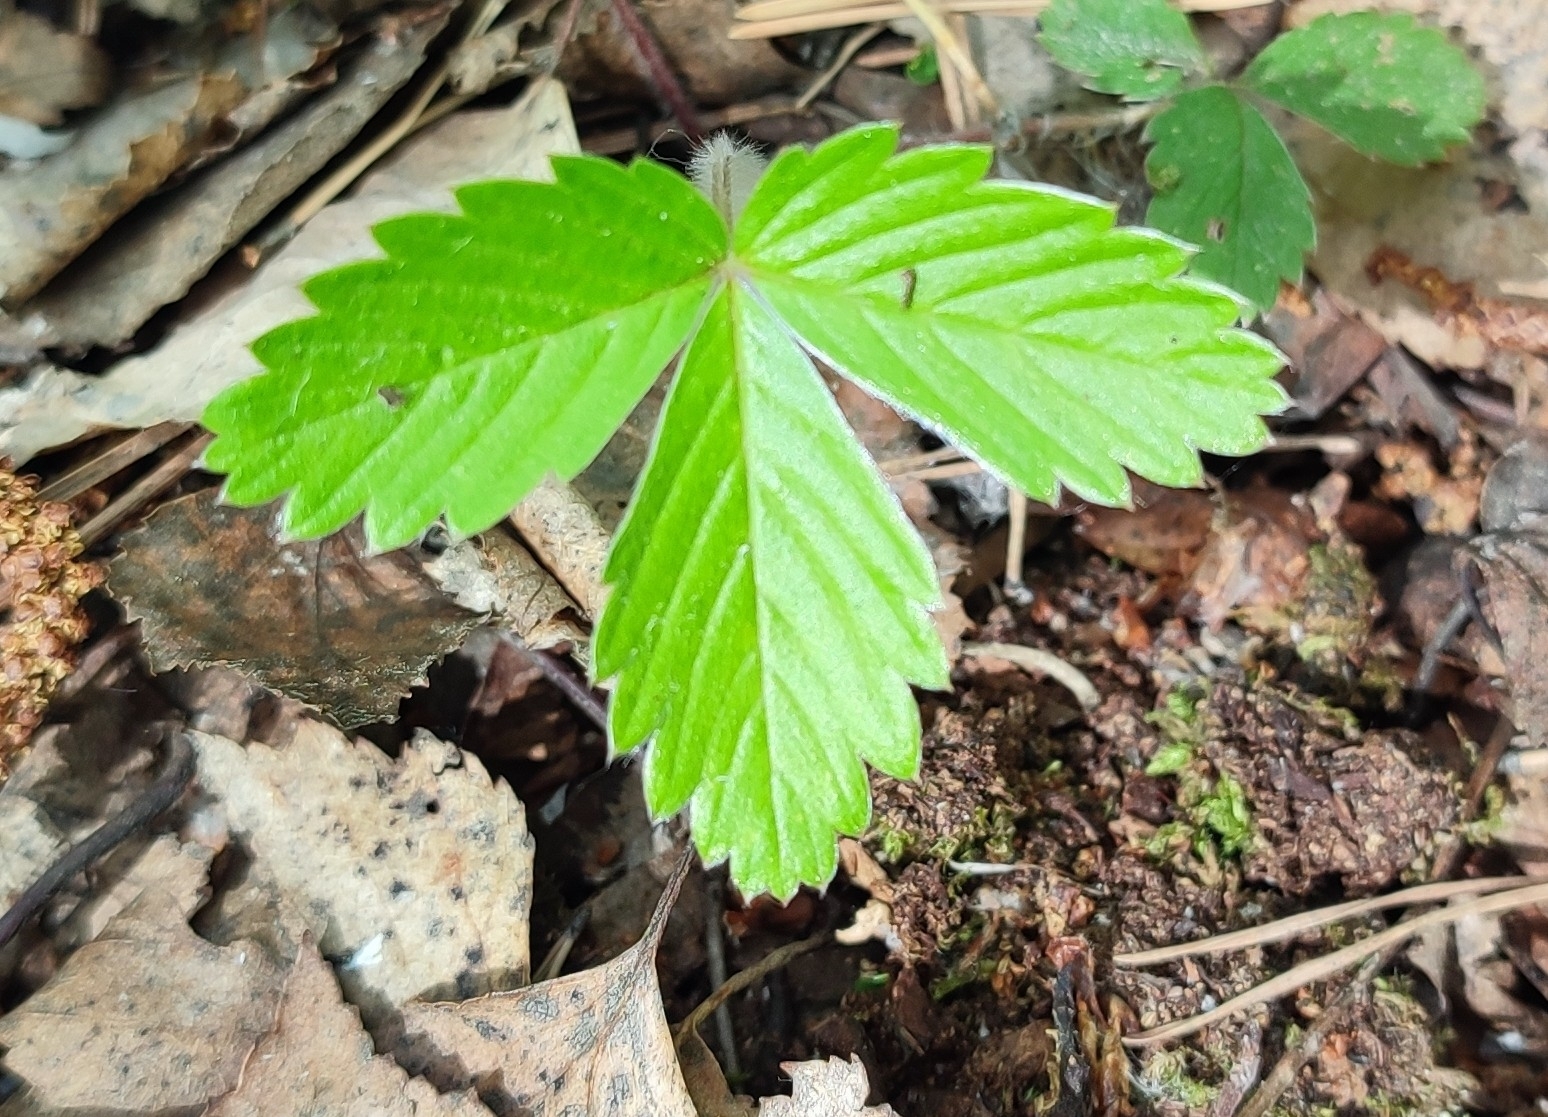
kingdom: Plantae
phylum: Tracheophyta
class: Magnoliopsida
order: Rosales
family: Rosaceae
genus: Fragaria
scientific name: Fragaria vesca
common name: Wild strawberry
